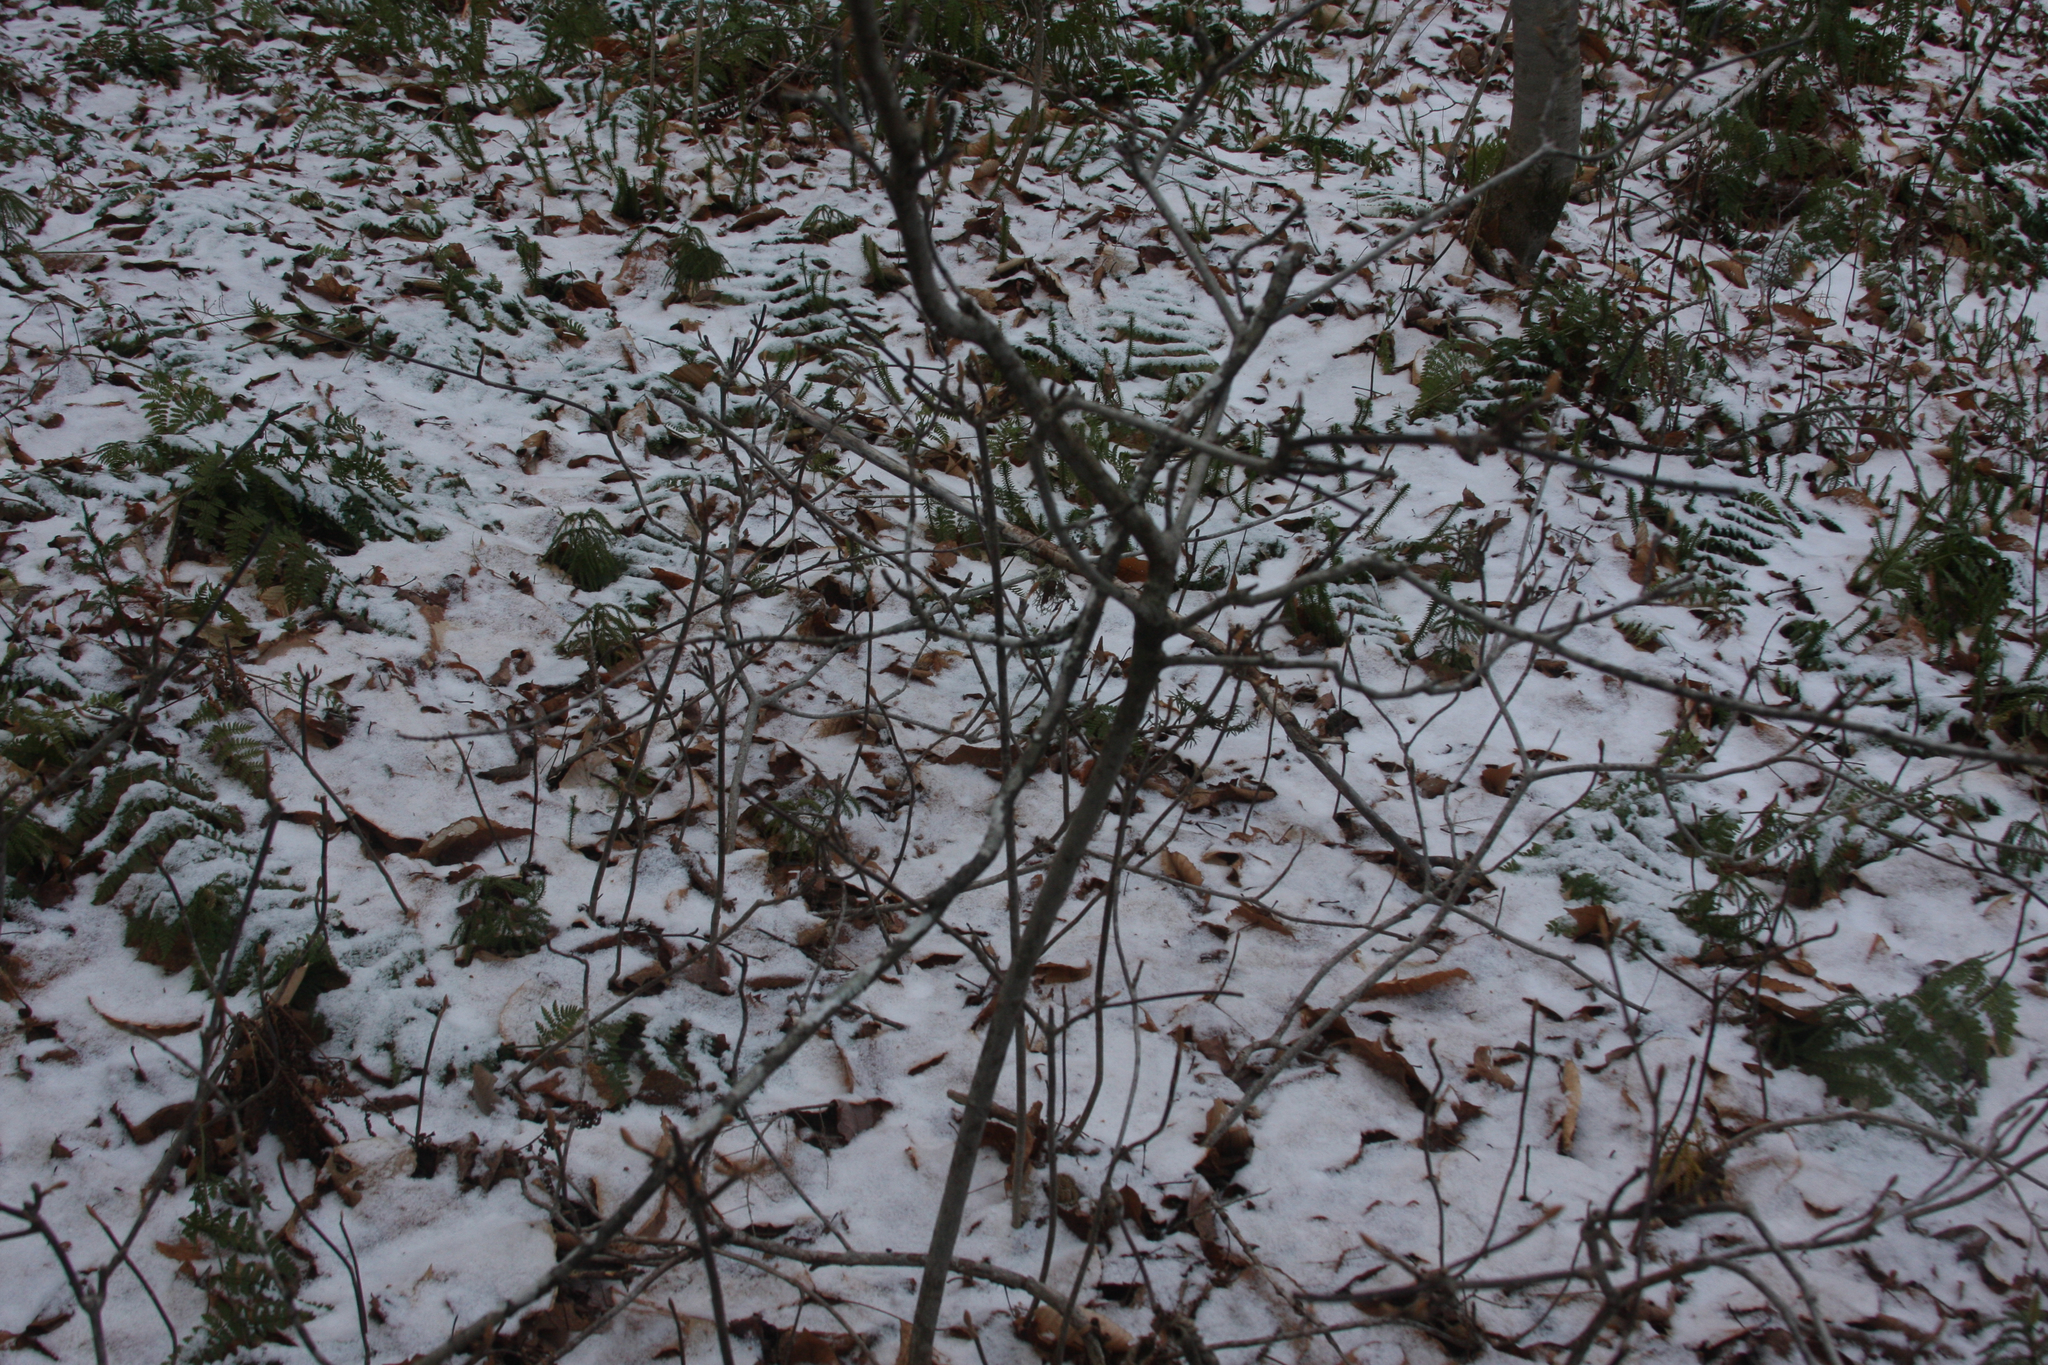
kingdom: Plantae
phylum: Tracheophyta
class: Magnoliopsida
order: Dipsacales
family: Viburnaceae
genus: Viburnum
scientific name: Viburnum lantanoides
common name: Hobblebush
